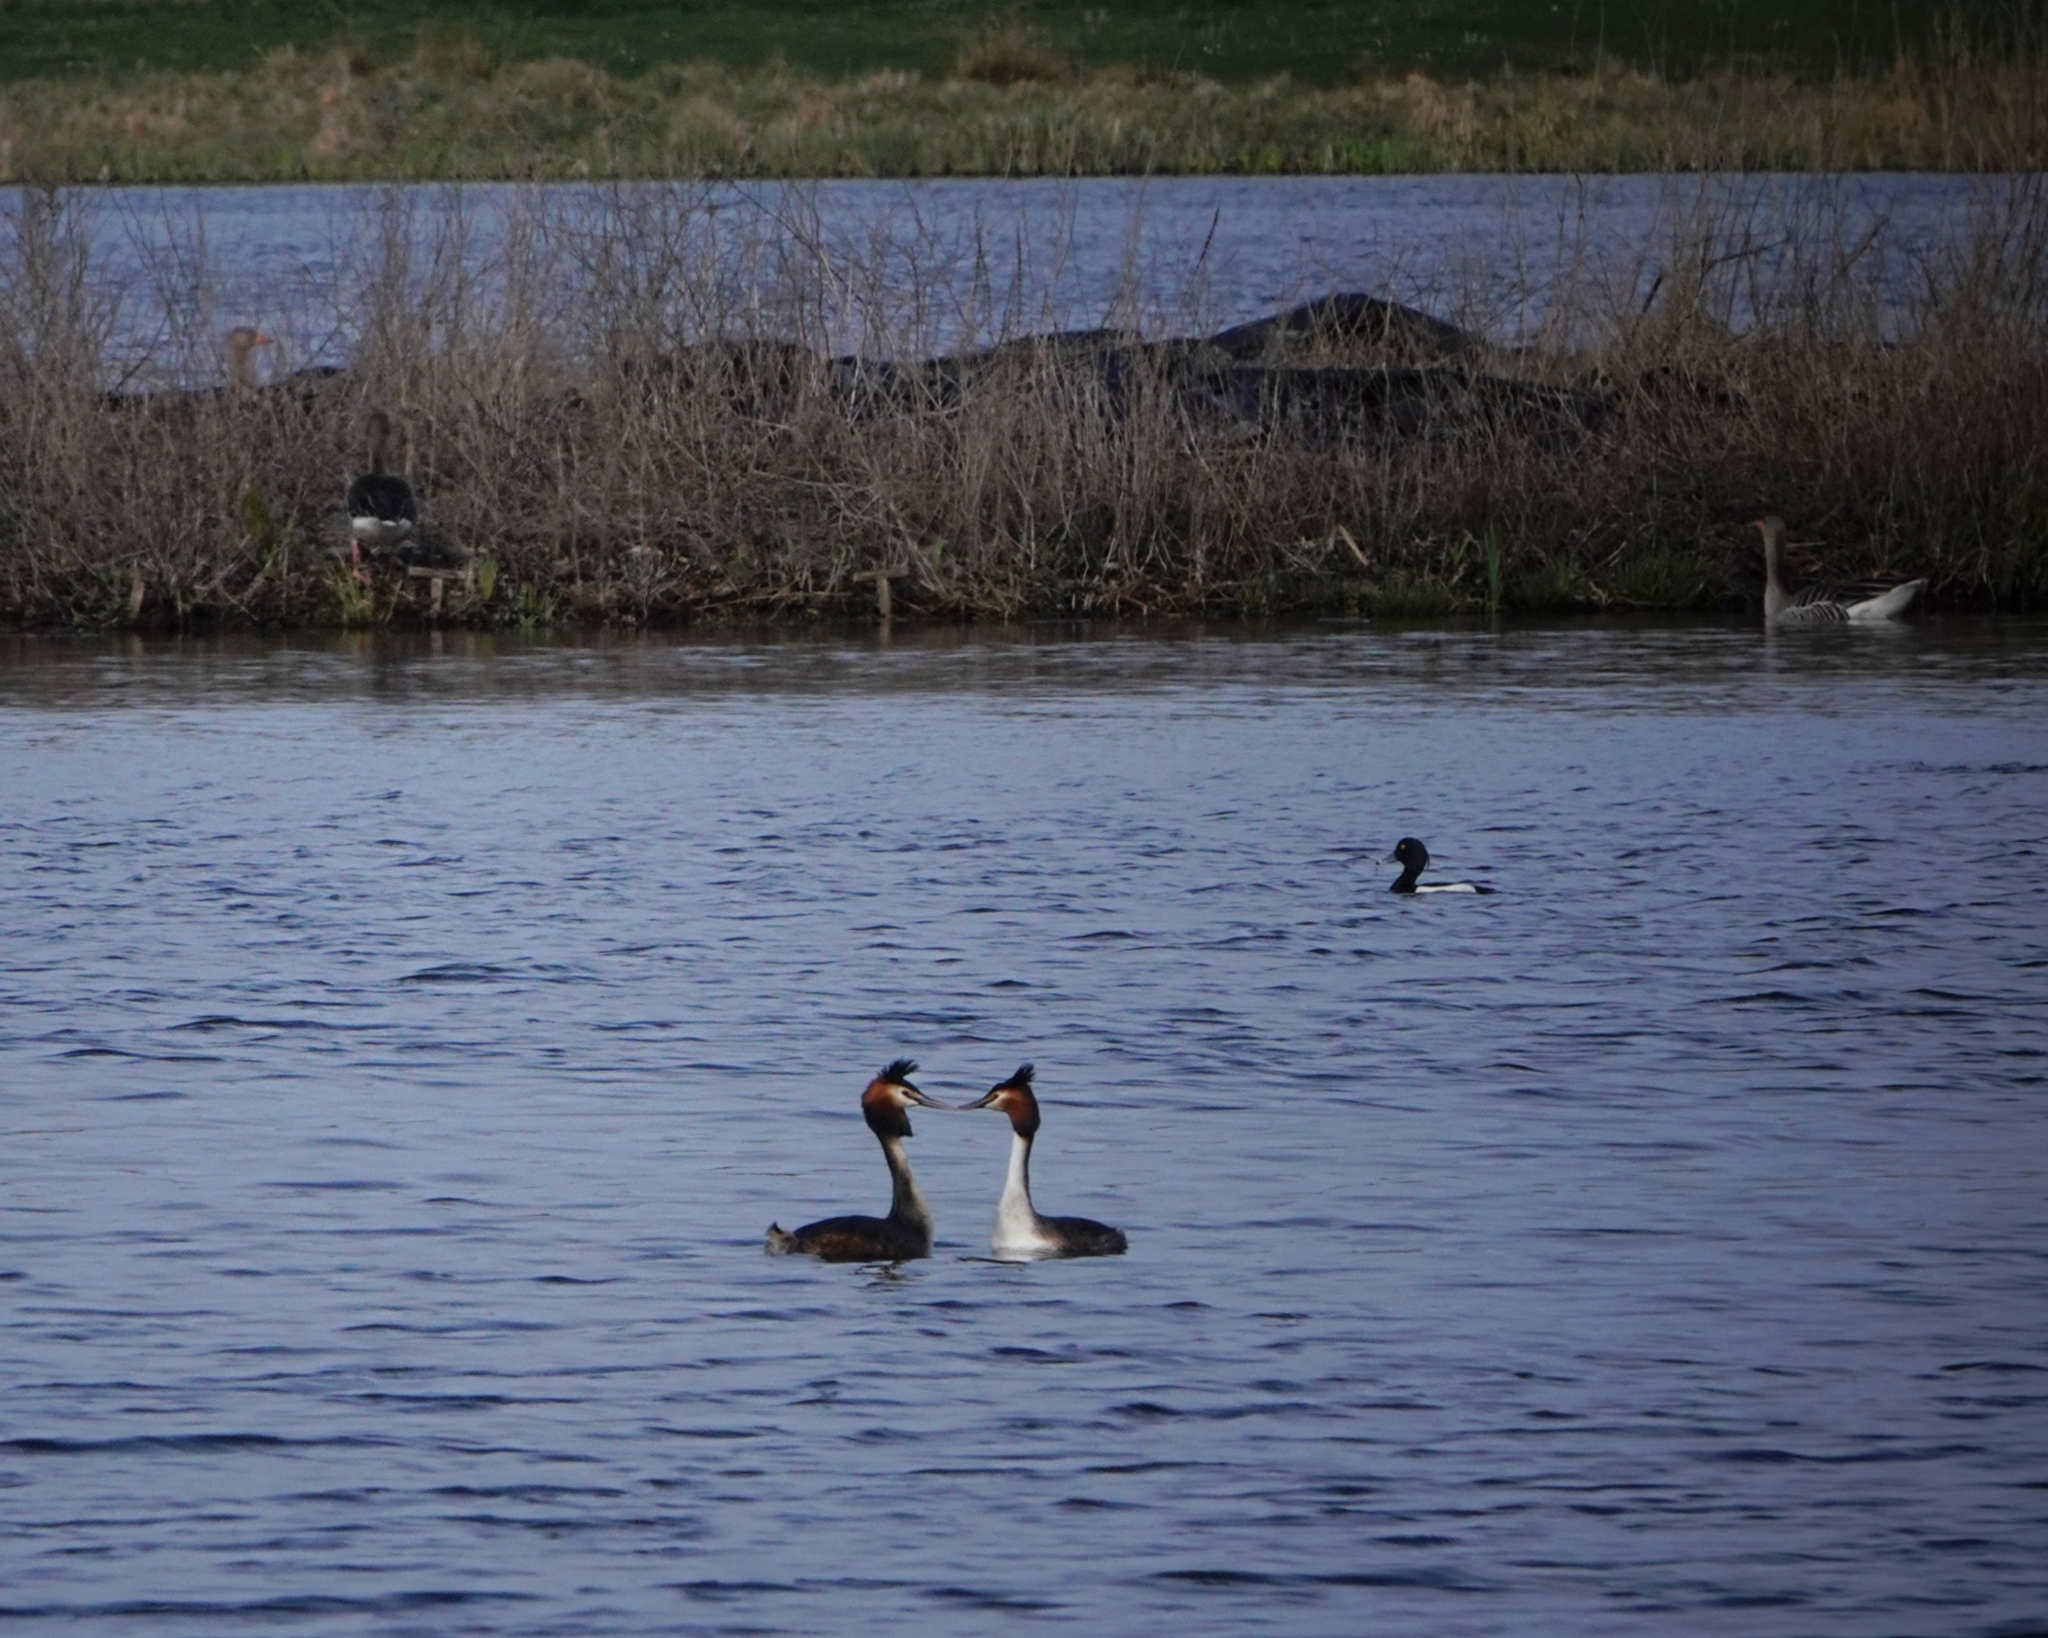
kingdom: Animalia
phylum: Chordata
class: Aves
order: Podicipediformes
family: Podicipedidae
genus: Podiceps
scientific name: Podiceps cristatus
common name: Great crested grebe
